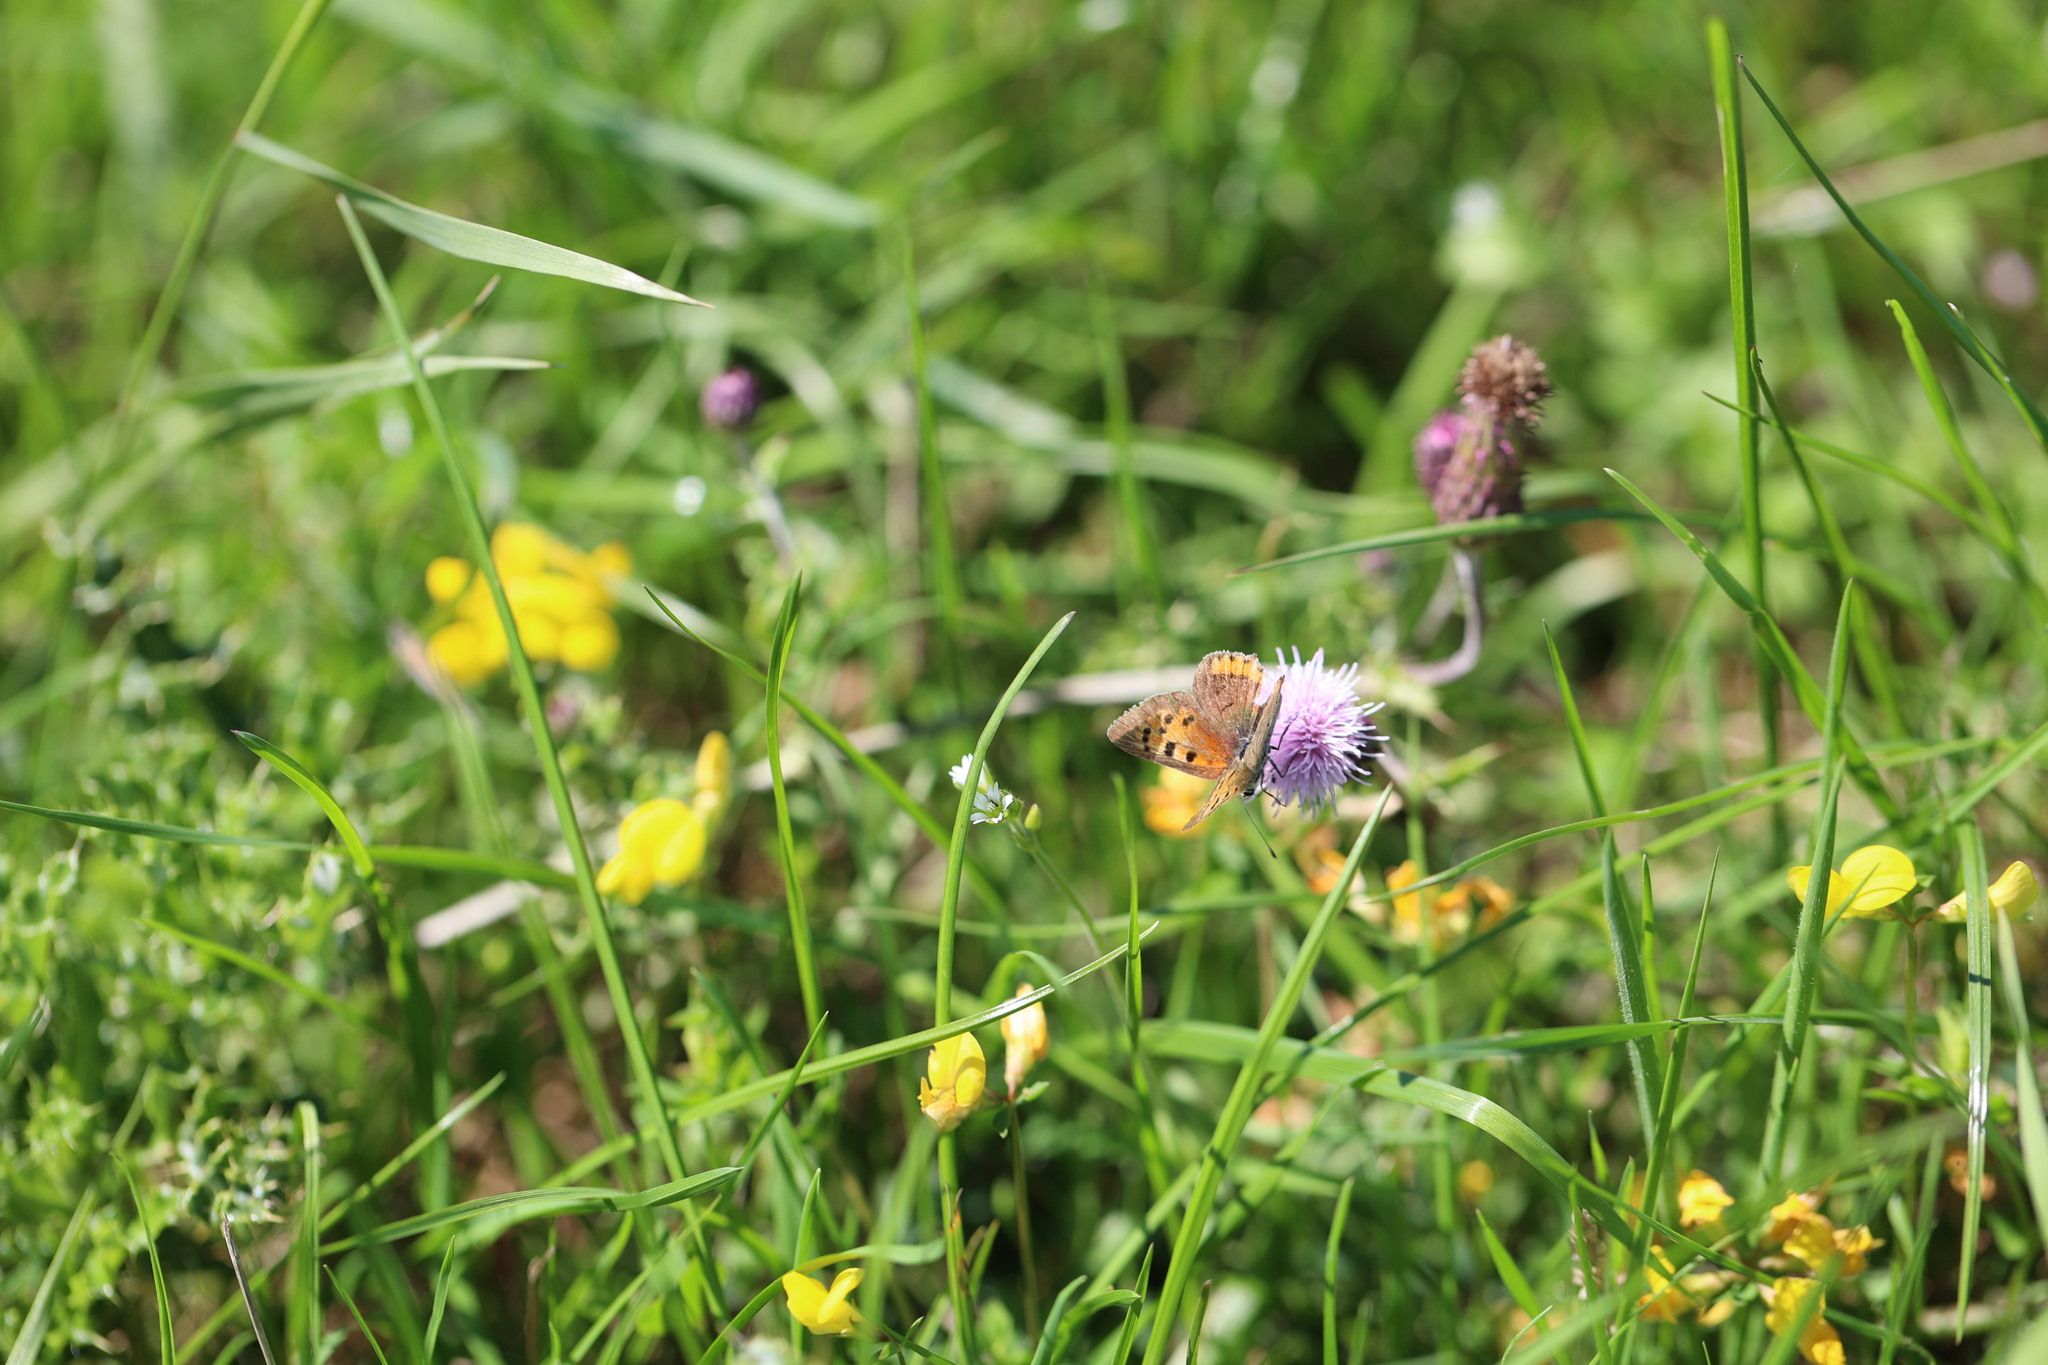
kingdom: Animalia
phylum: Arthropoda
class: Insecta
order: Lepidoptera
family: Lycaenidae
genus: Lycaena
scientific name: Lycaena phlaeas
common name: Small copper
